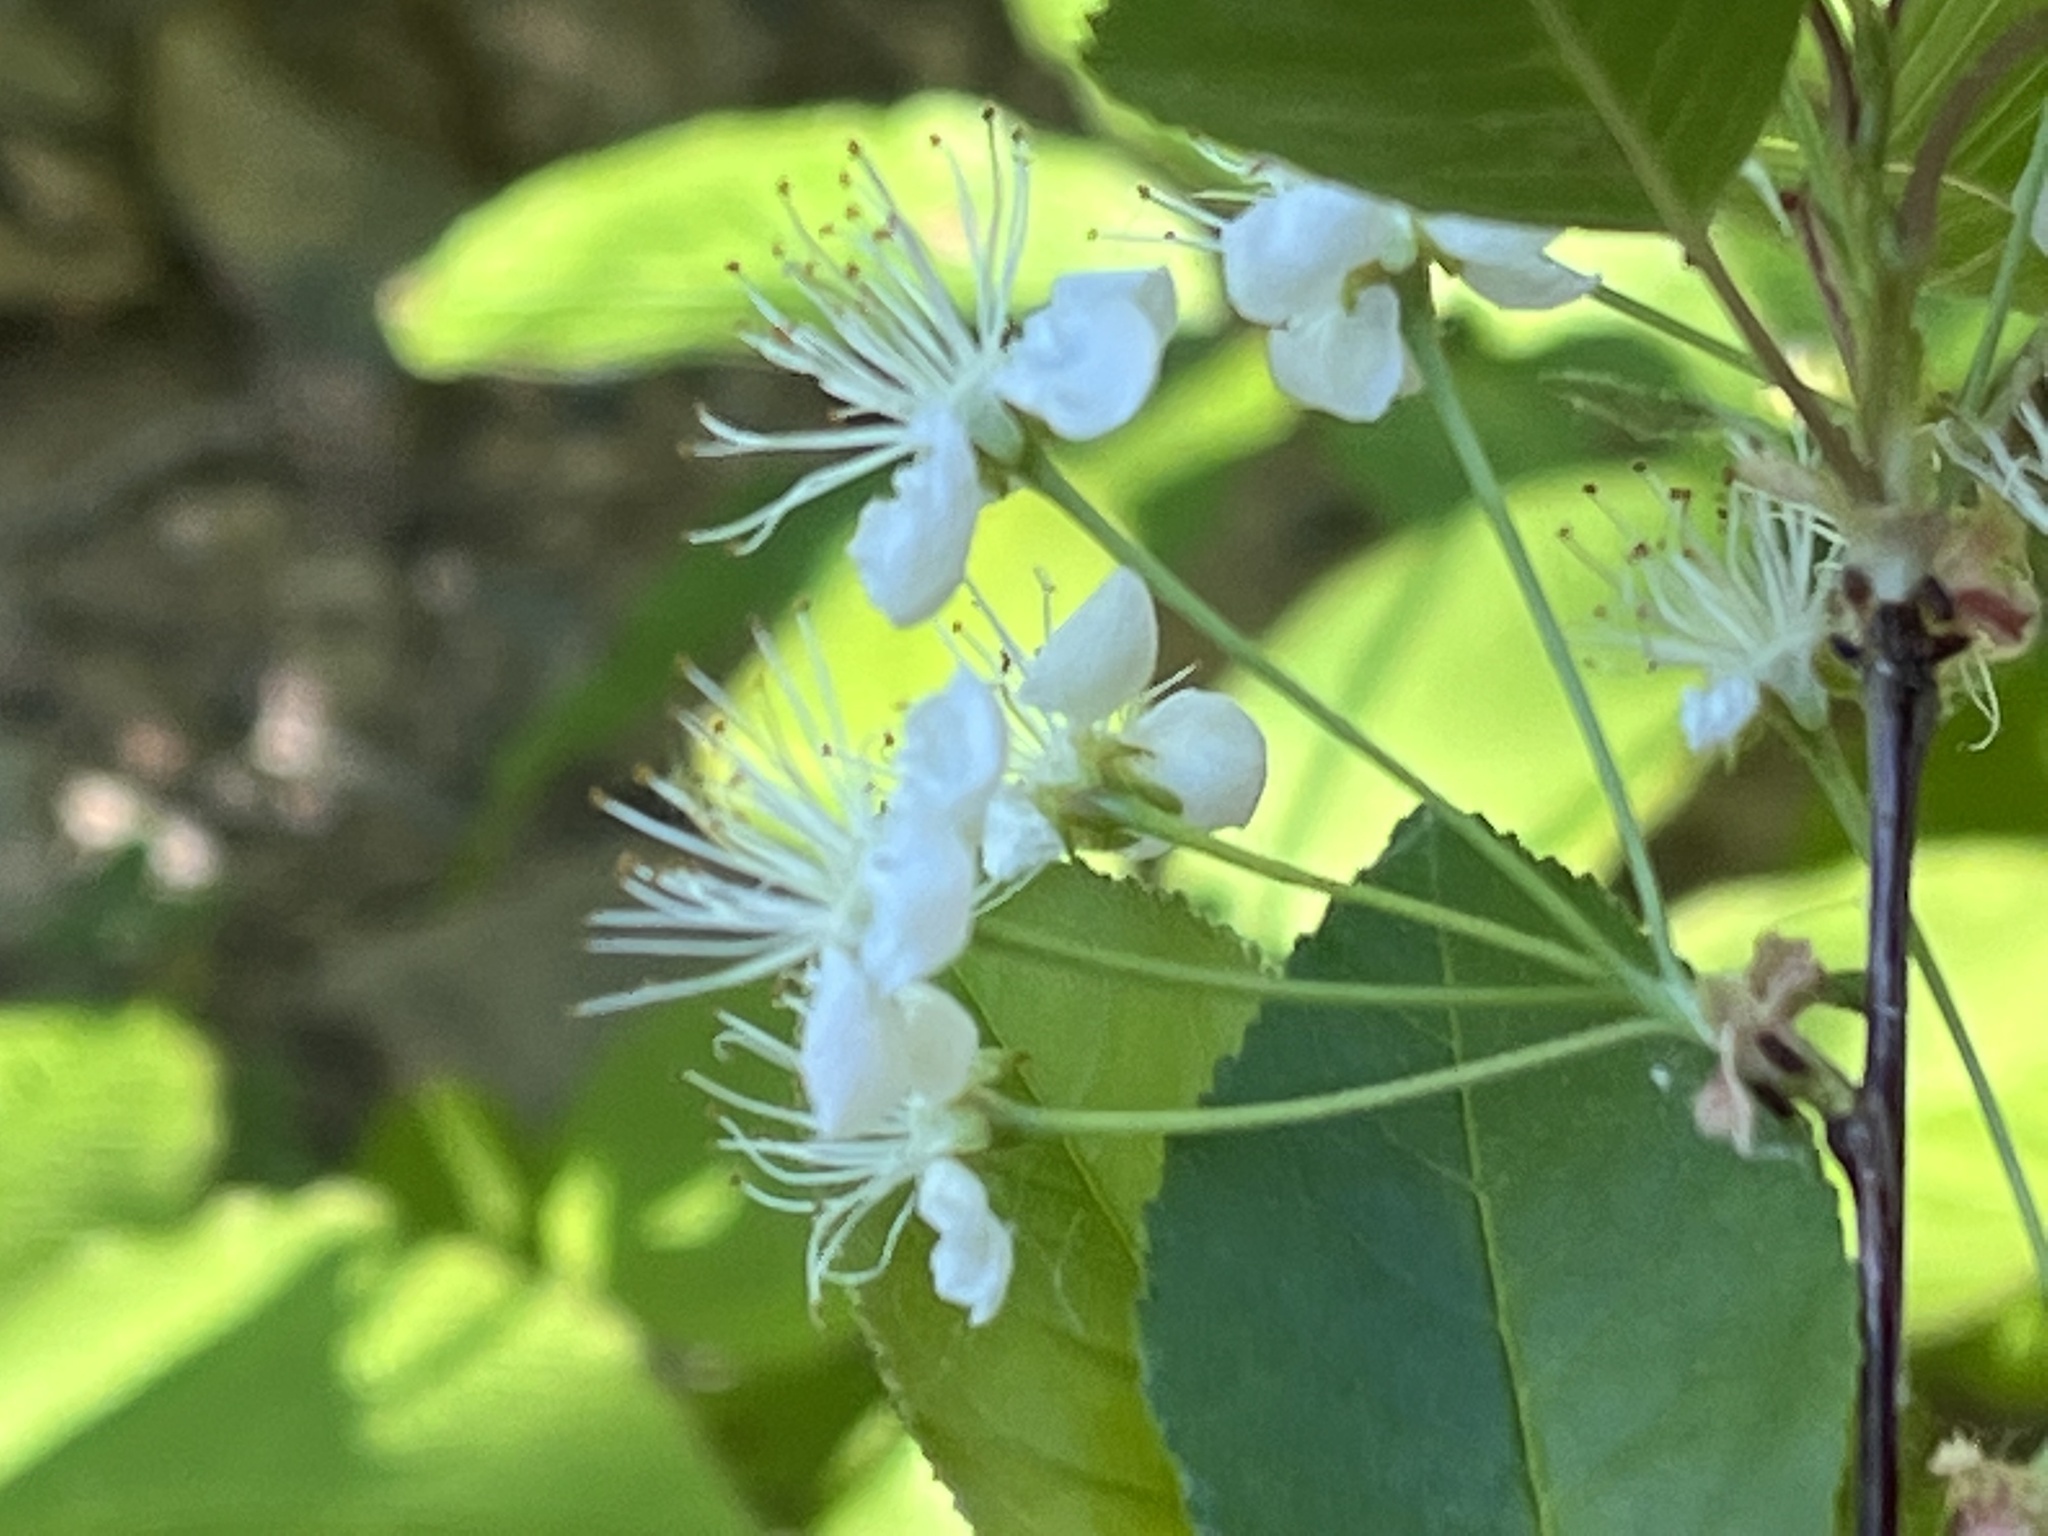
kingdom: Plantae
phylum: Tracheophyta
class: Magnoliopsida
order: Rosales
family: Rosaceae
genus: Prunus
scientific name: Prunus pensylvanica
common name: Pin cherry
